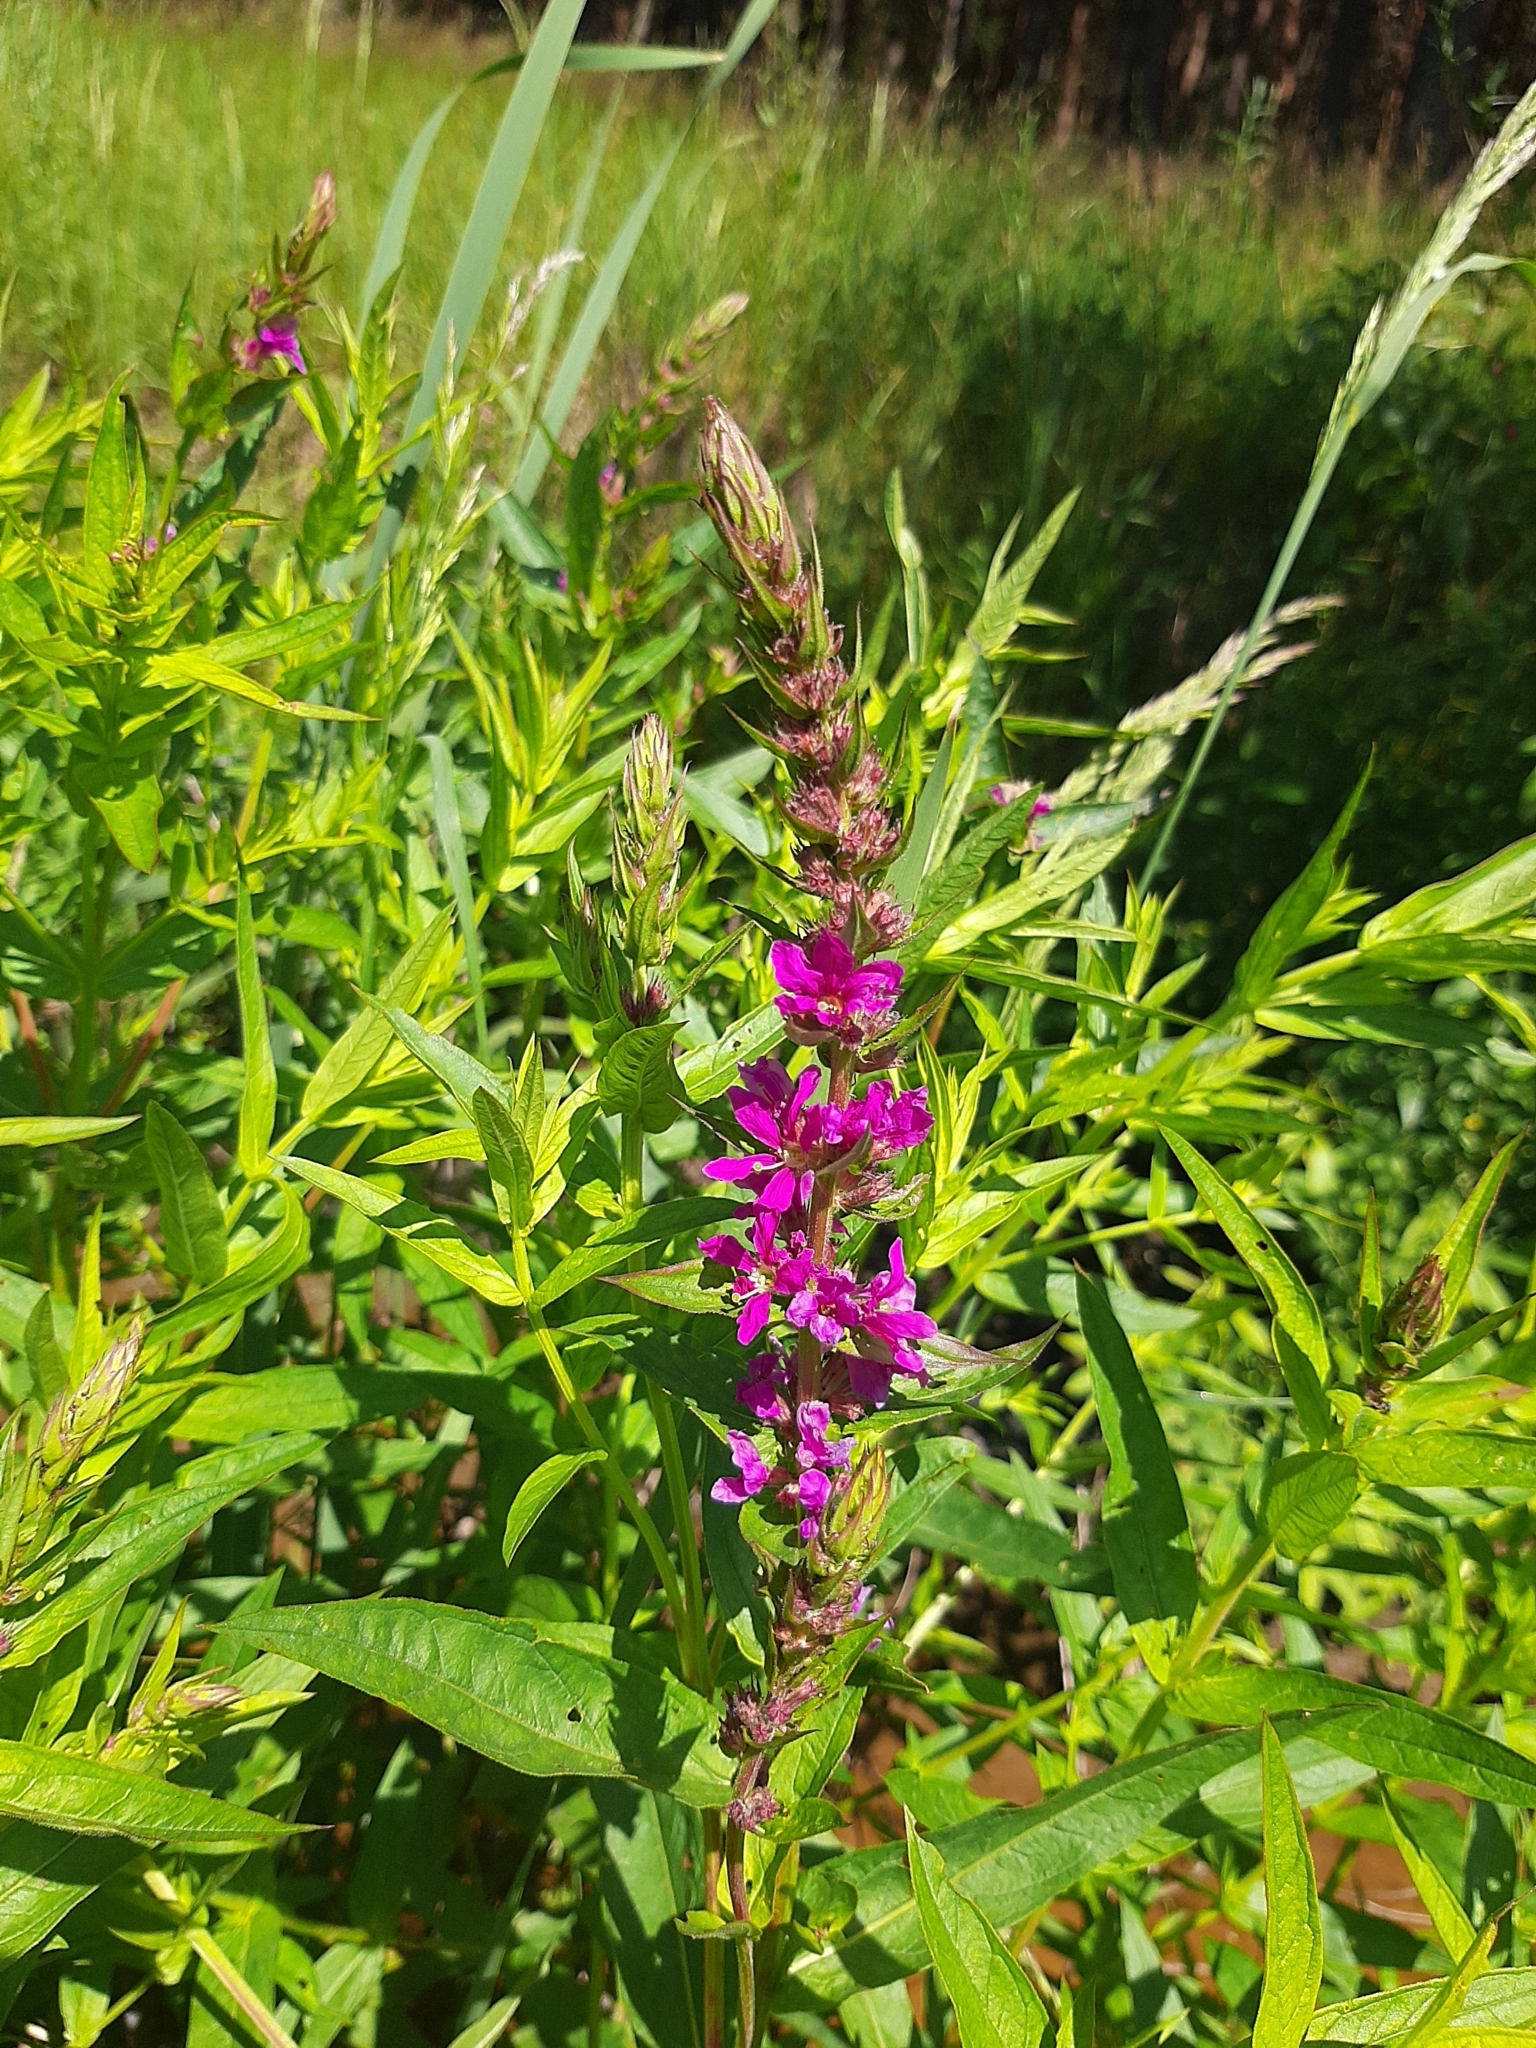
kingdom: Plantae
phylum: Tracheophyta
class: Magnoliopsida
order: Myrtales
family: Lythraceae
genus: Lythrum
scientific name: Lythrum salicaria
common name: Purple loosestrife
